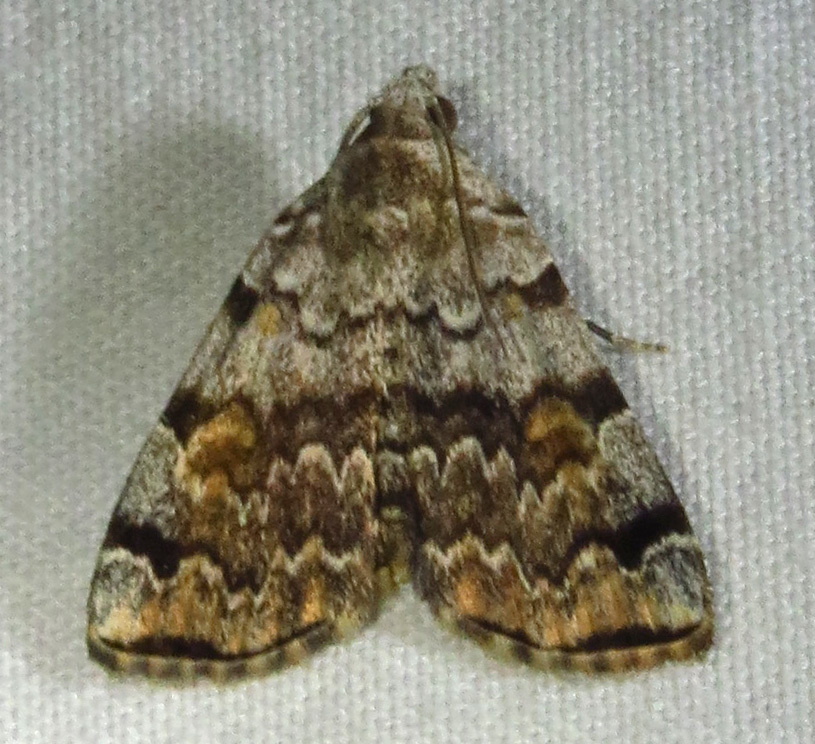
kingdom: Animalia
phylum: Arthropoda
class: Insecta
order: Lepidoptera
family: Erebidae
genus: Idia
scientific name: Idia americalis
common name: American idia moth
